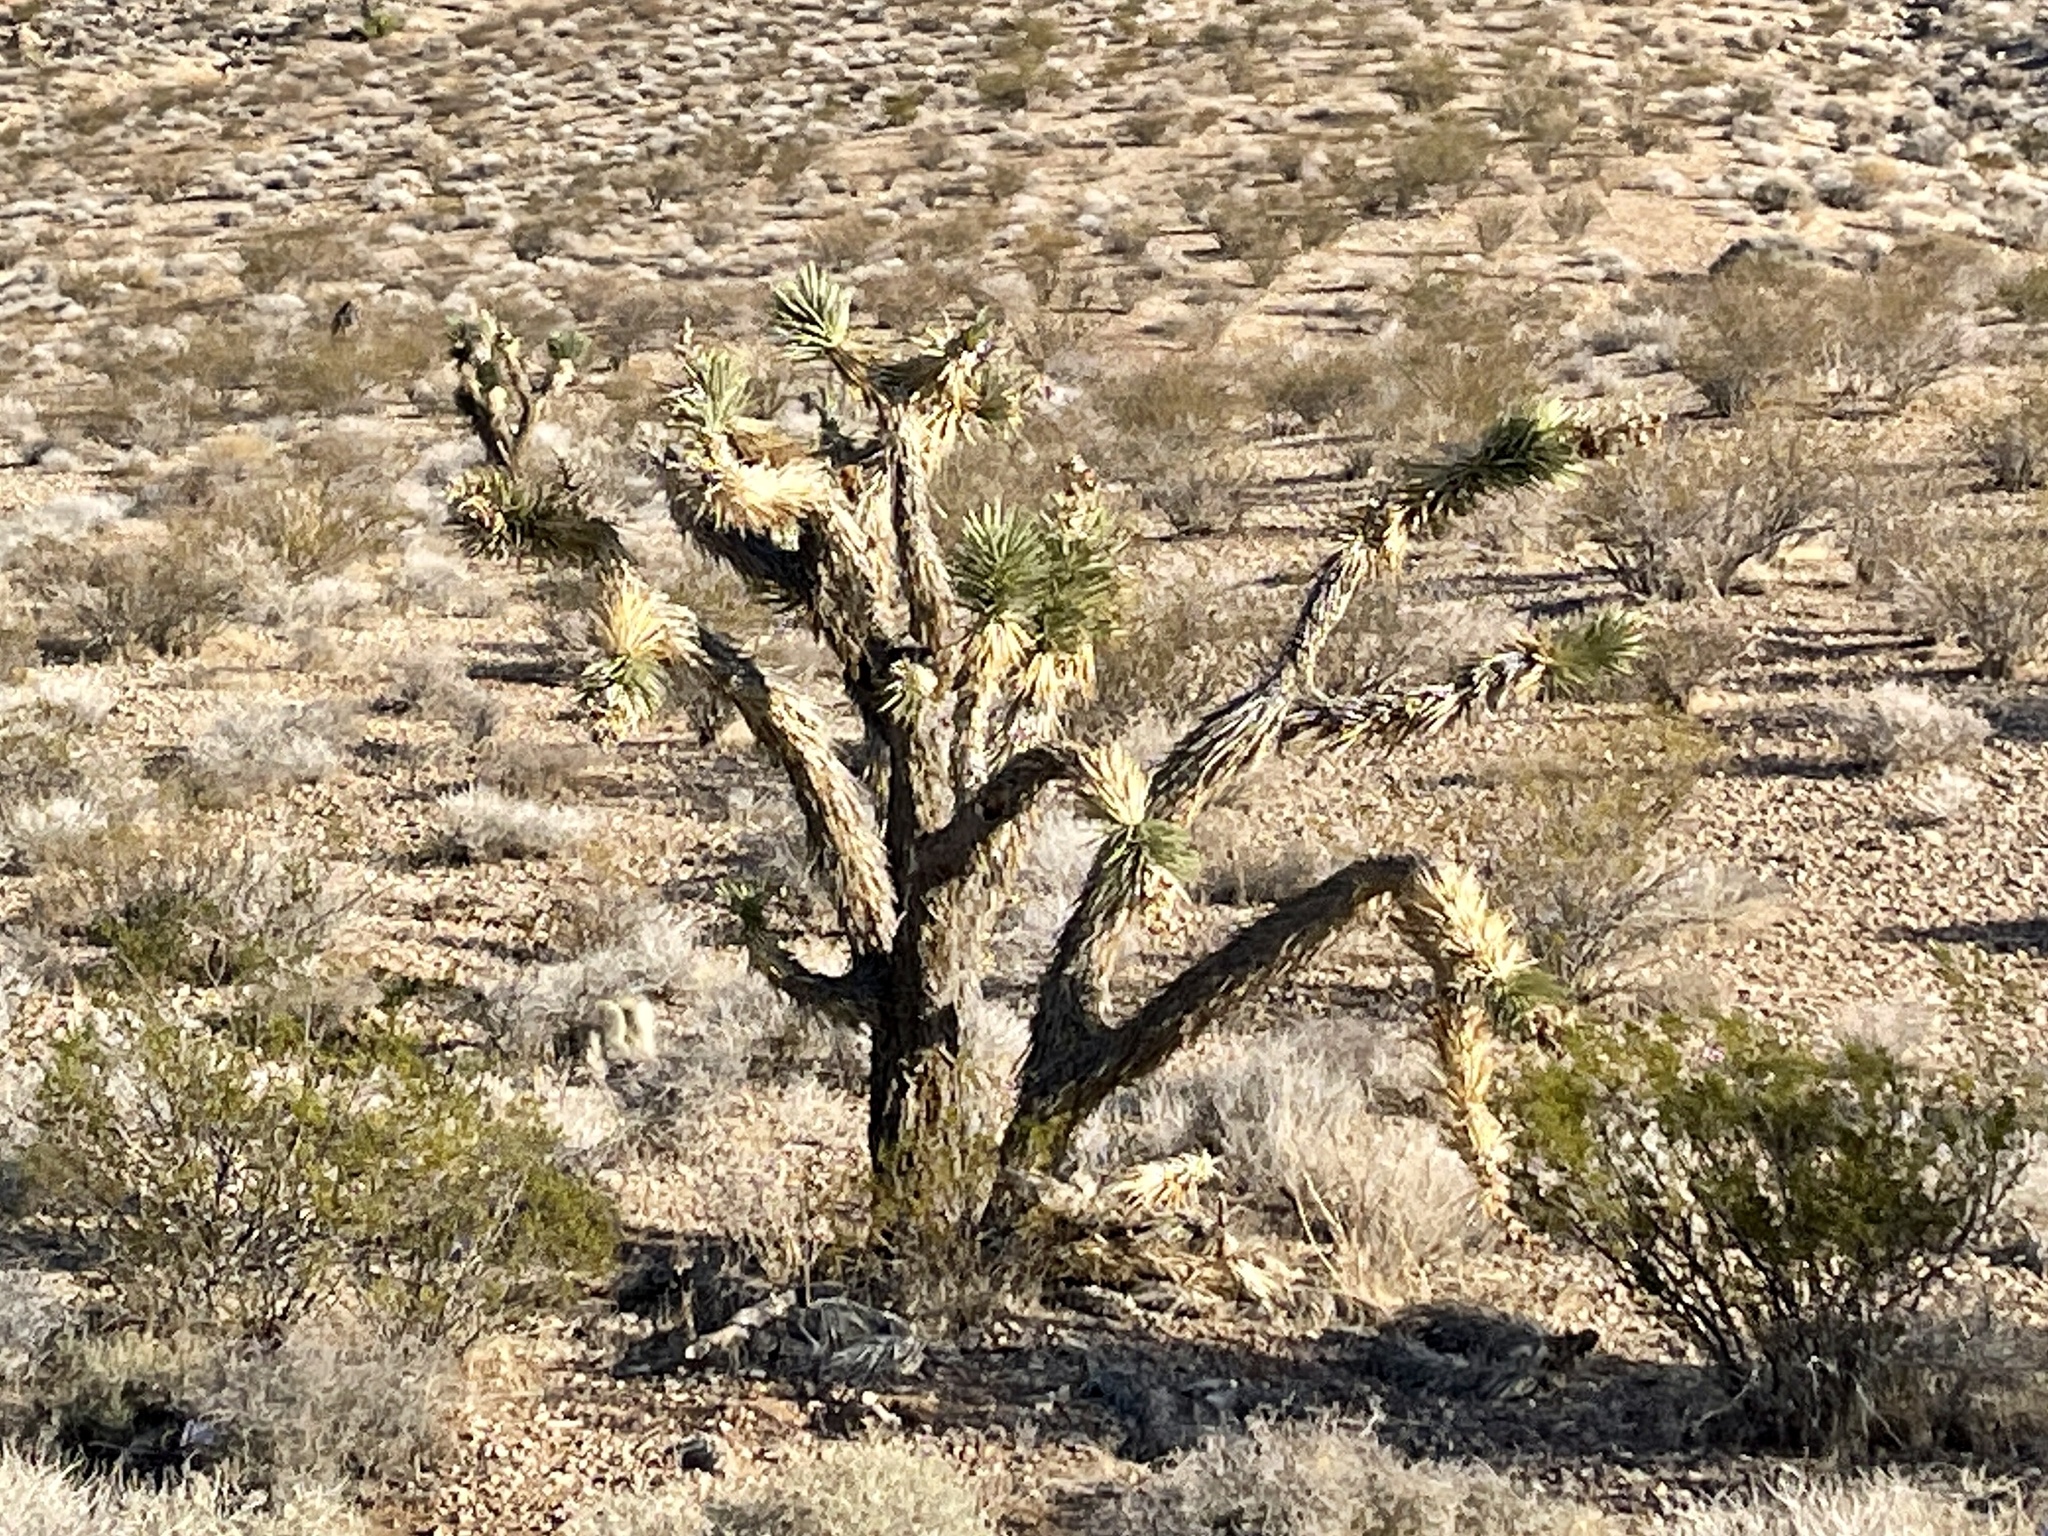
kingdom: Plantae
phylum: Tracheophyta
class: Liliopsida
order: Asparagales
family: Asparagaceae
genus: Yucca
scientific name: Yucca brevifolia
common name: Joshua tree
